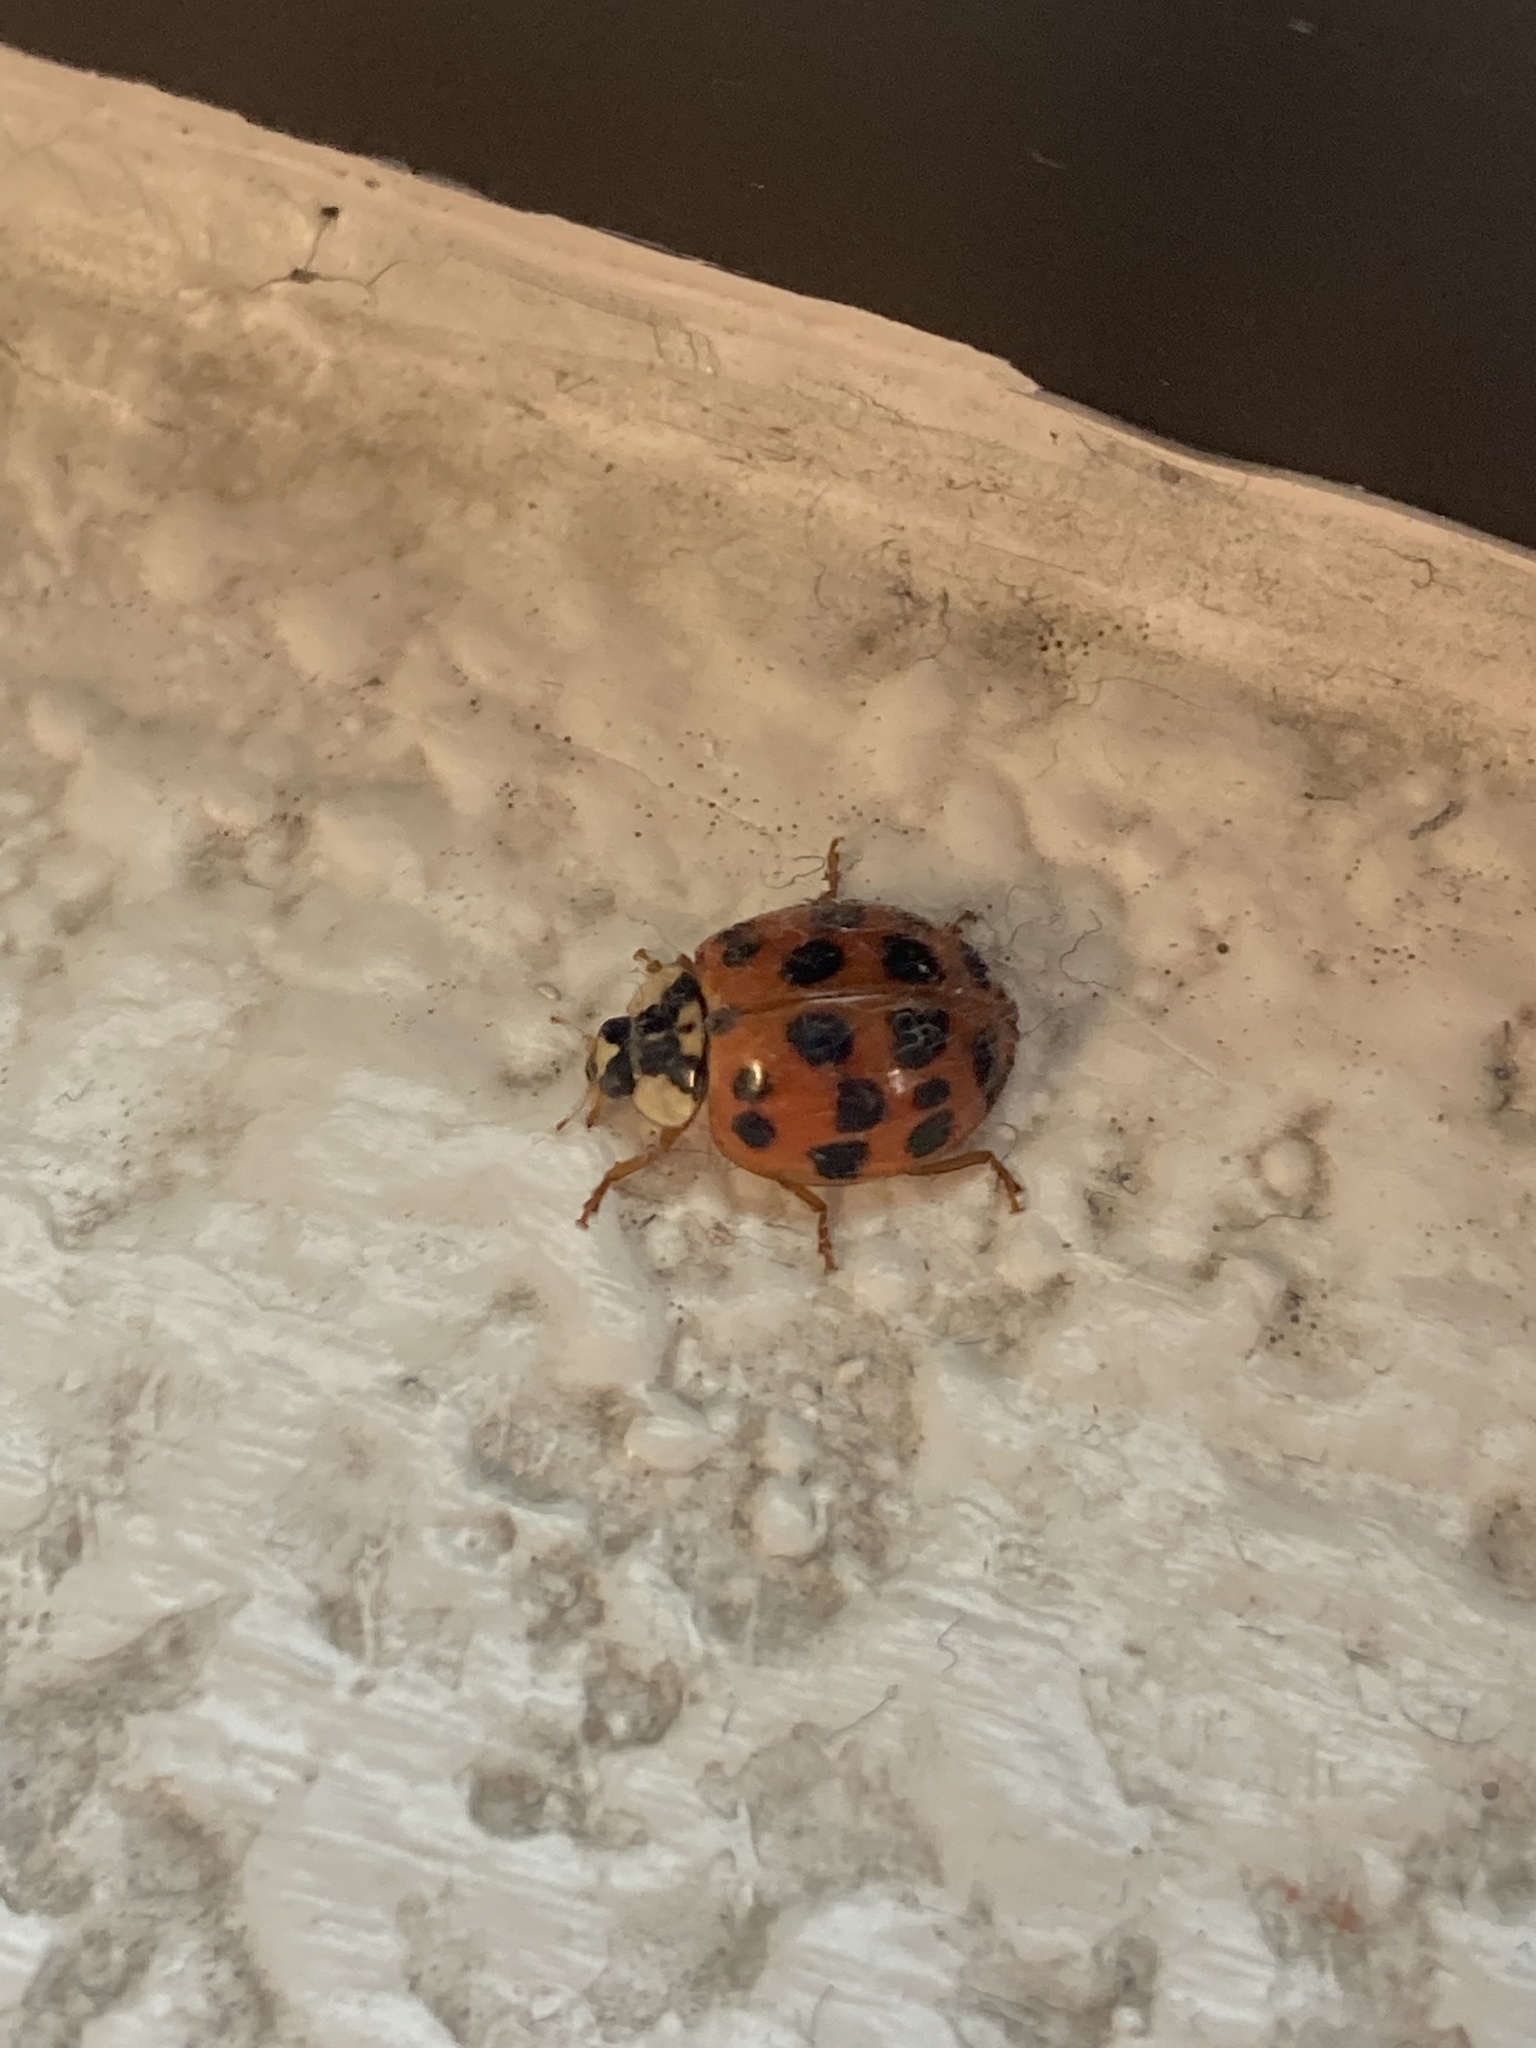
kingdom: Animalia
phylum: Arthropoda
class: Insecta
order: Coleoptera
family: Coccinellidae
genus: Harmonia
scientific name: Harmonia axyridis
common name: Harlequin ladybird
